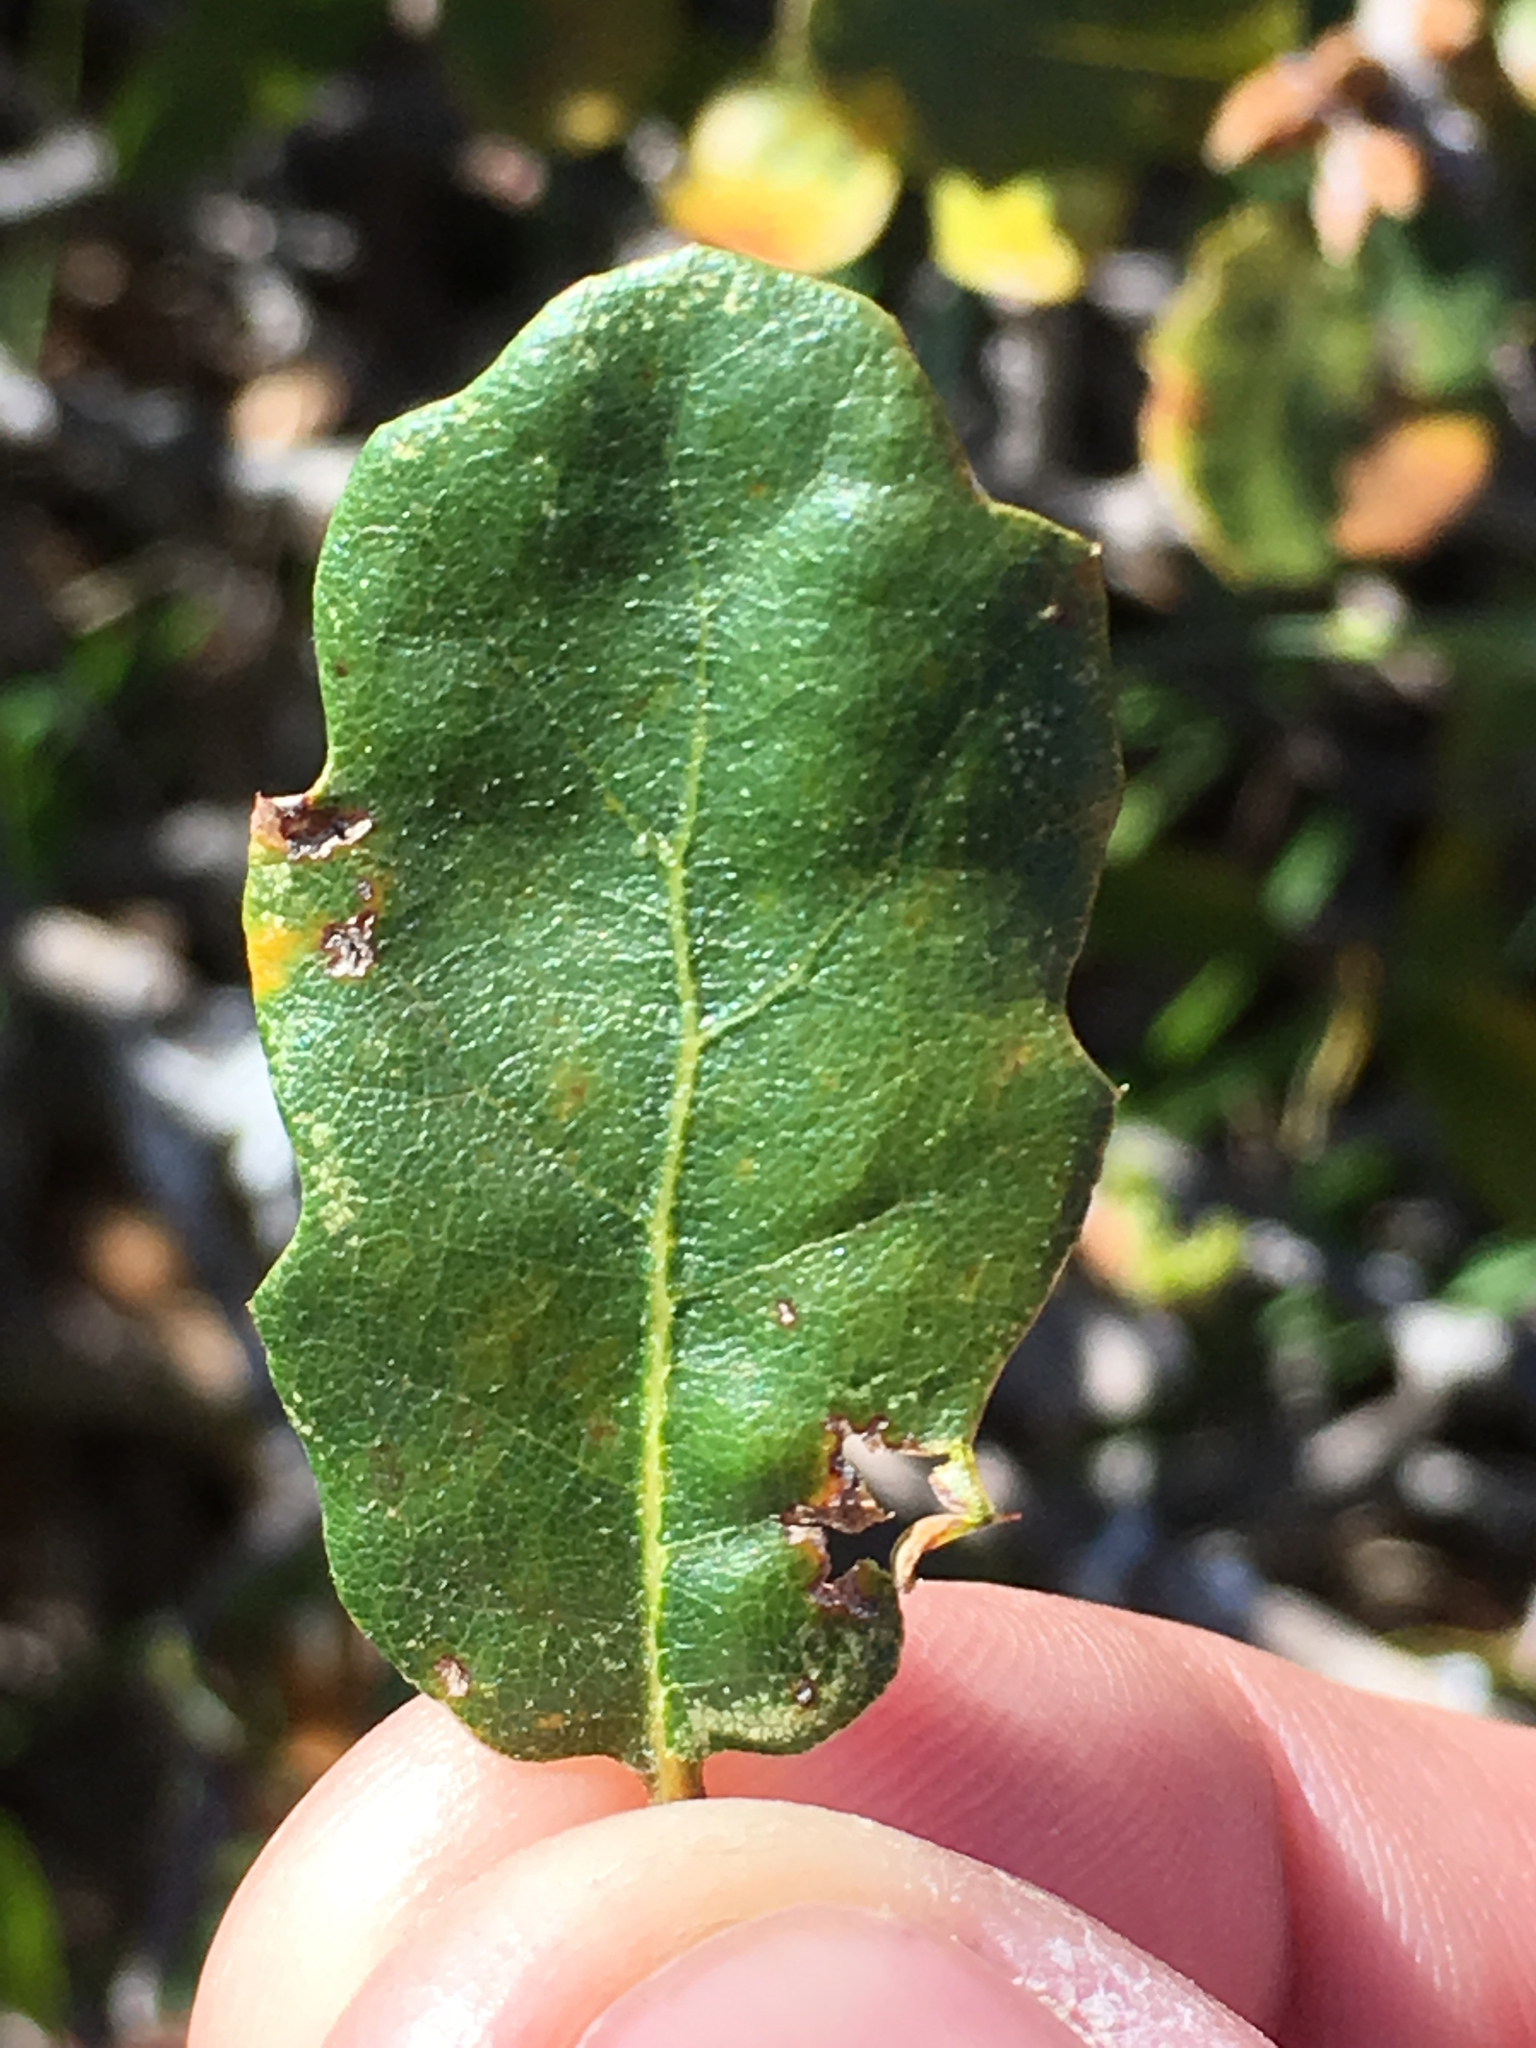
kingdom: Plantae
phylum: Tracheophyta
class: Magnoliopsida
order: Fagales
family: Fagaceae
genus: Quercus
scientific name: Quercus pacifica
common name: Channel island scrub oak
